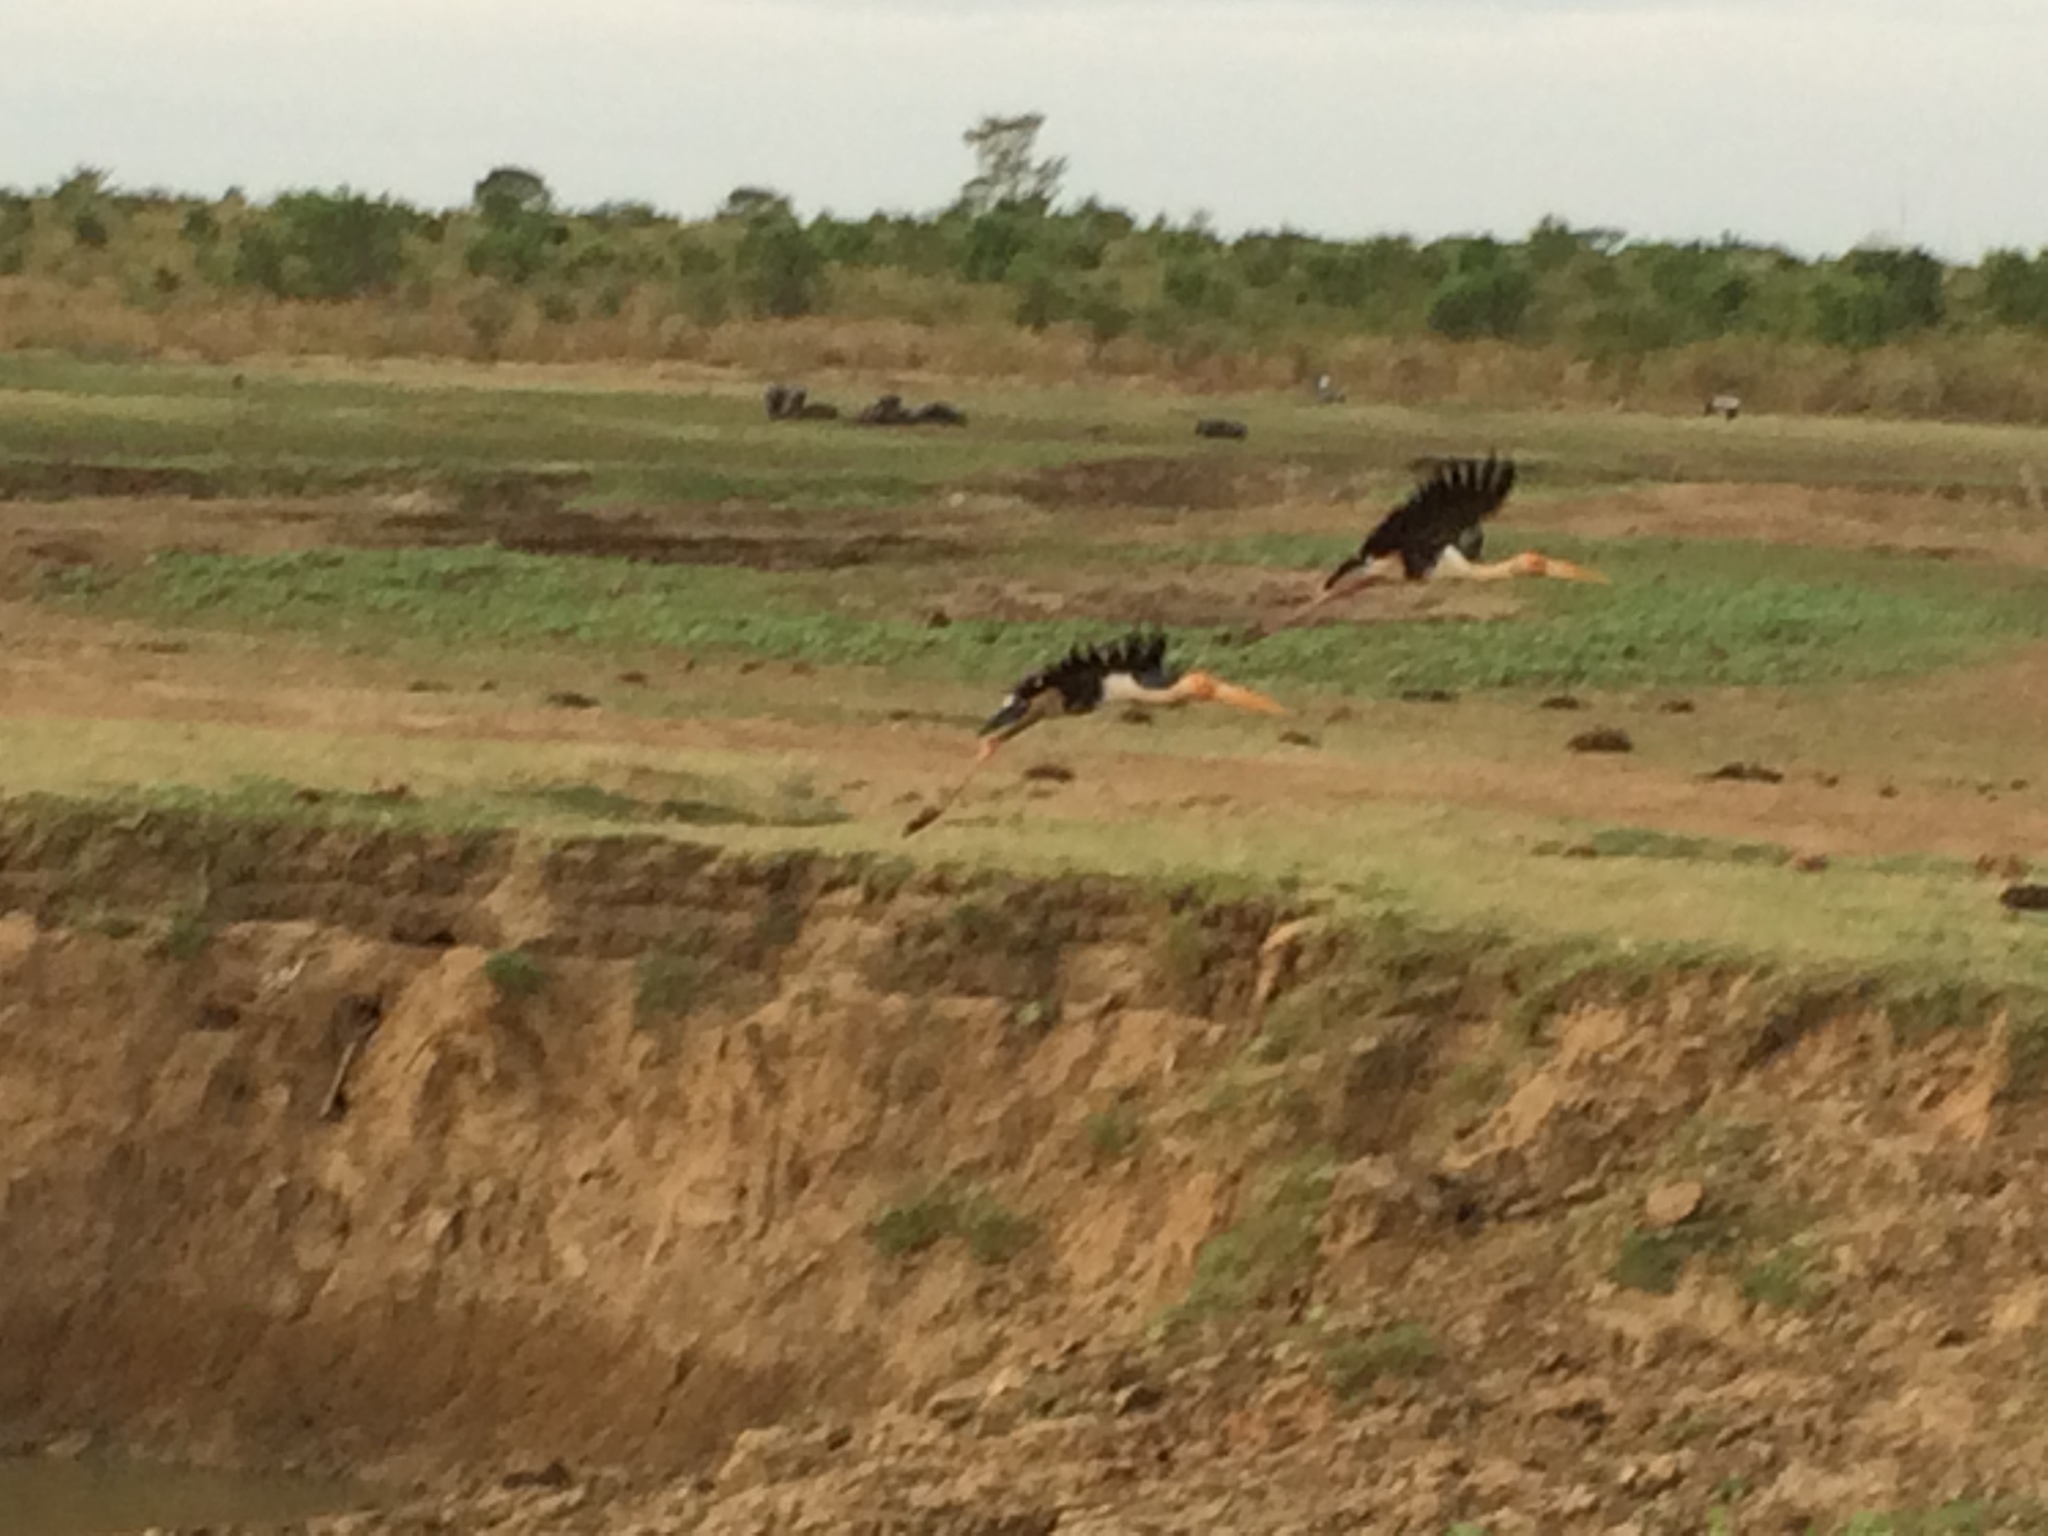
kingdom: Animalia
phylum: Chordata
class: Aves
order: Ciconiiformes
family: Ciconiidae
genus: Mycteria
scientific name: Mycteria leucocephala
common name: Painted stork
